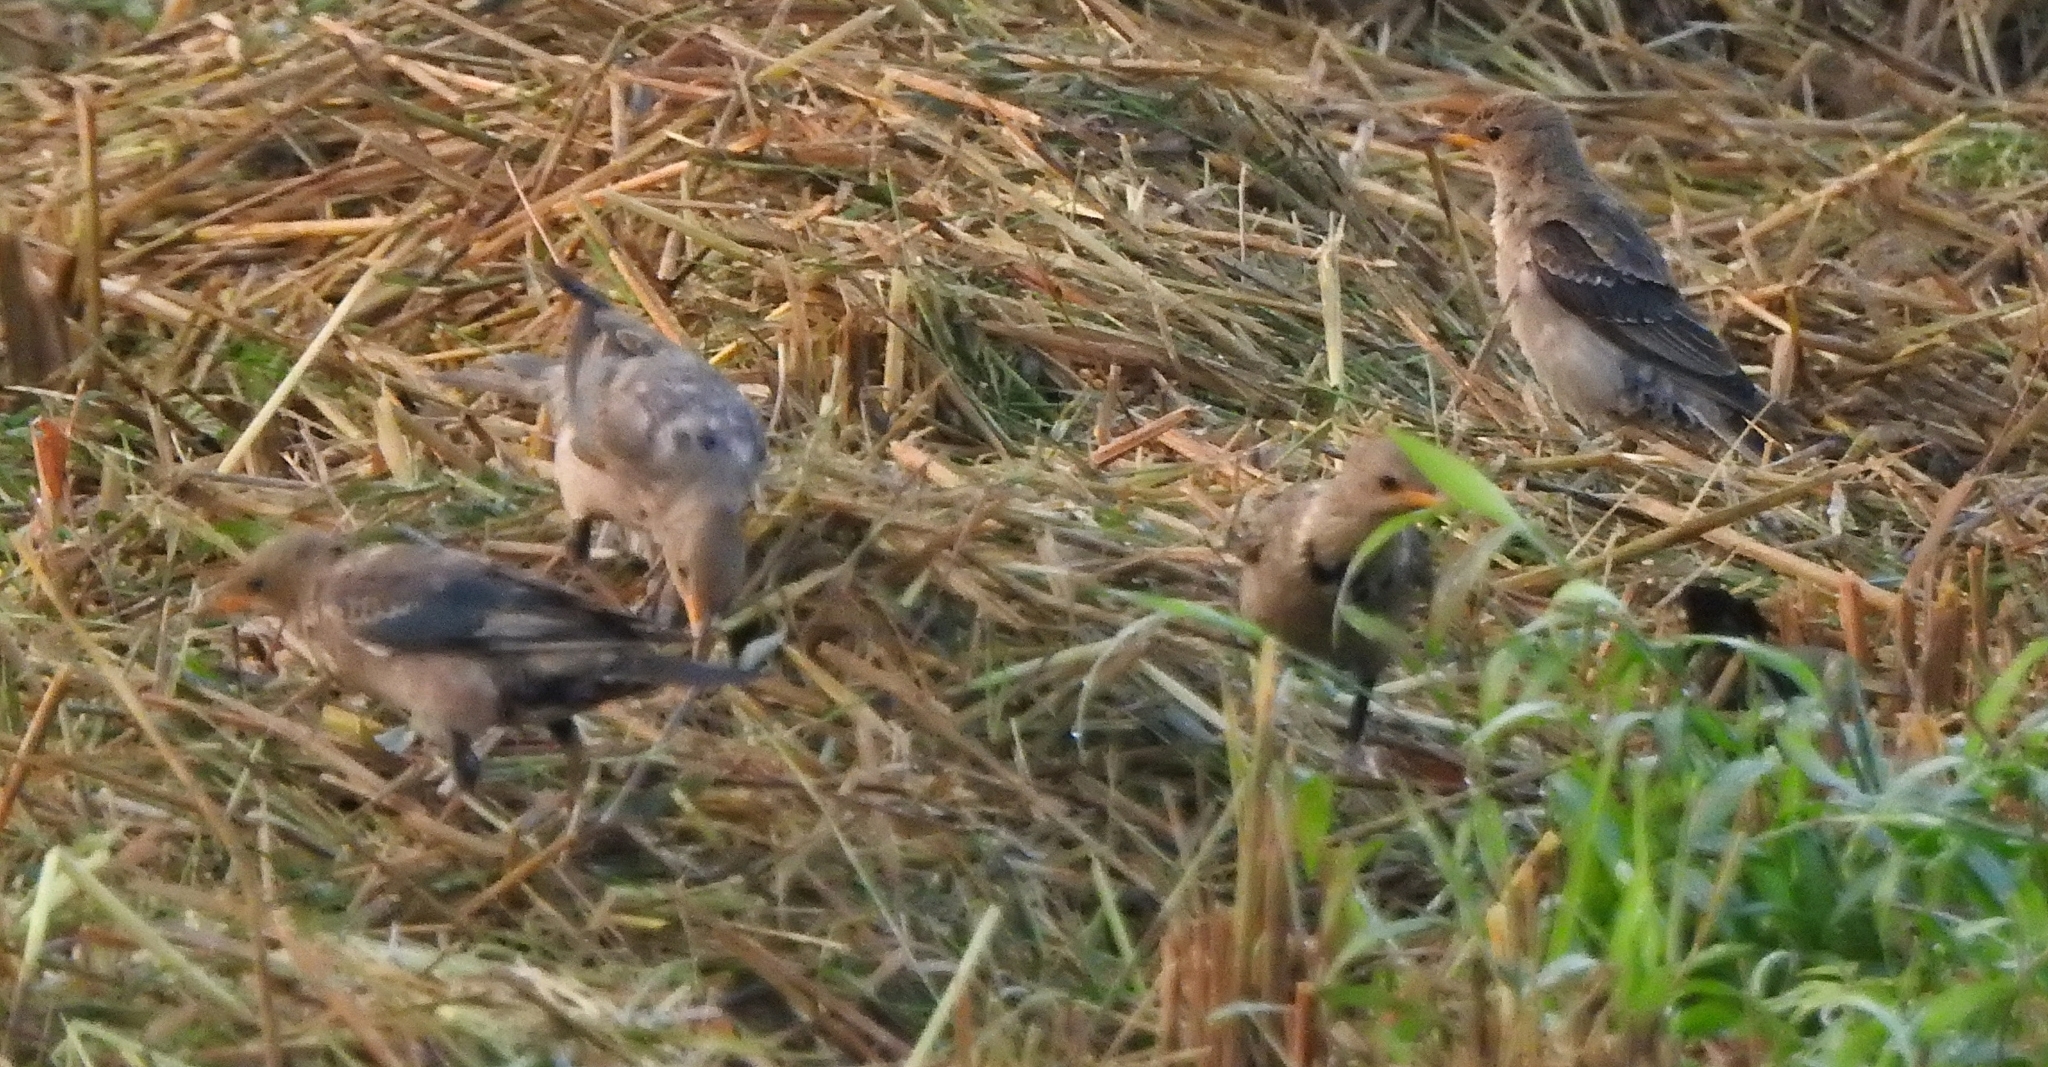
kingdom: Animalia
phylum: Chordata
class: Aves
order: Passeriformes
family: Sturnidae
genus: Pastor
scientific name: Pastor roseus
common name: Rosy starling
